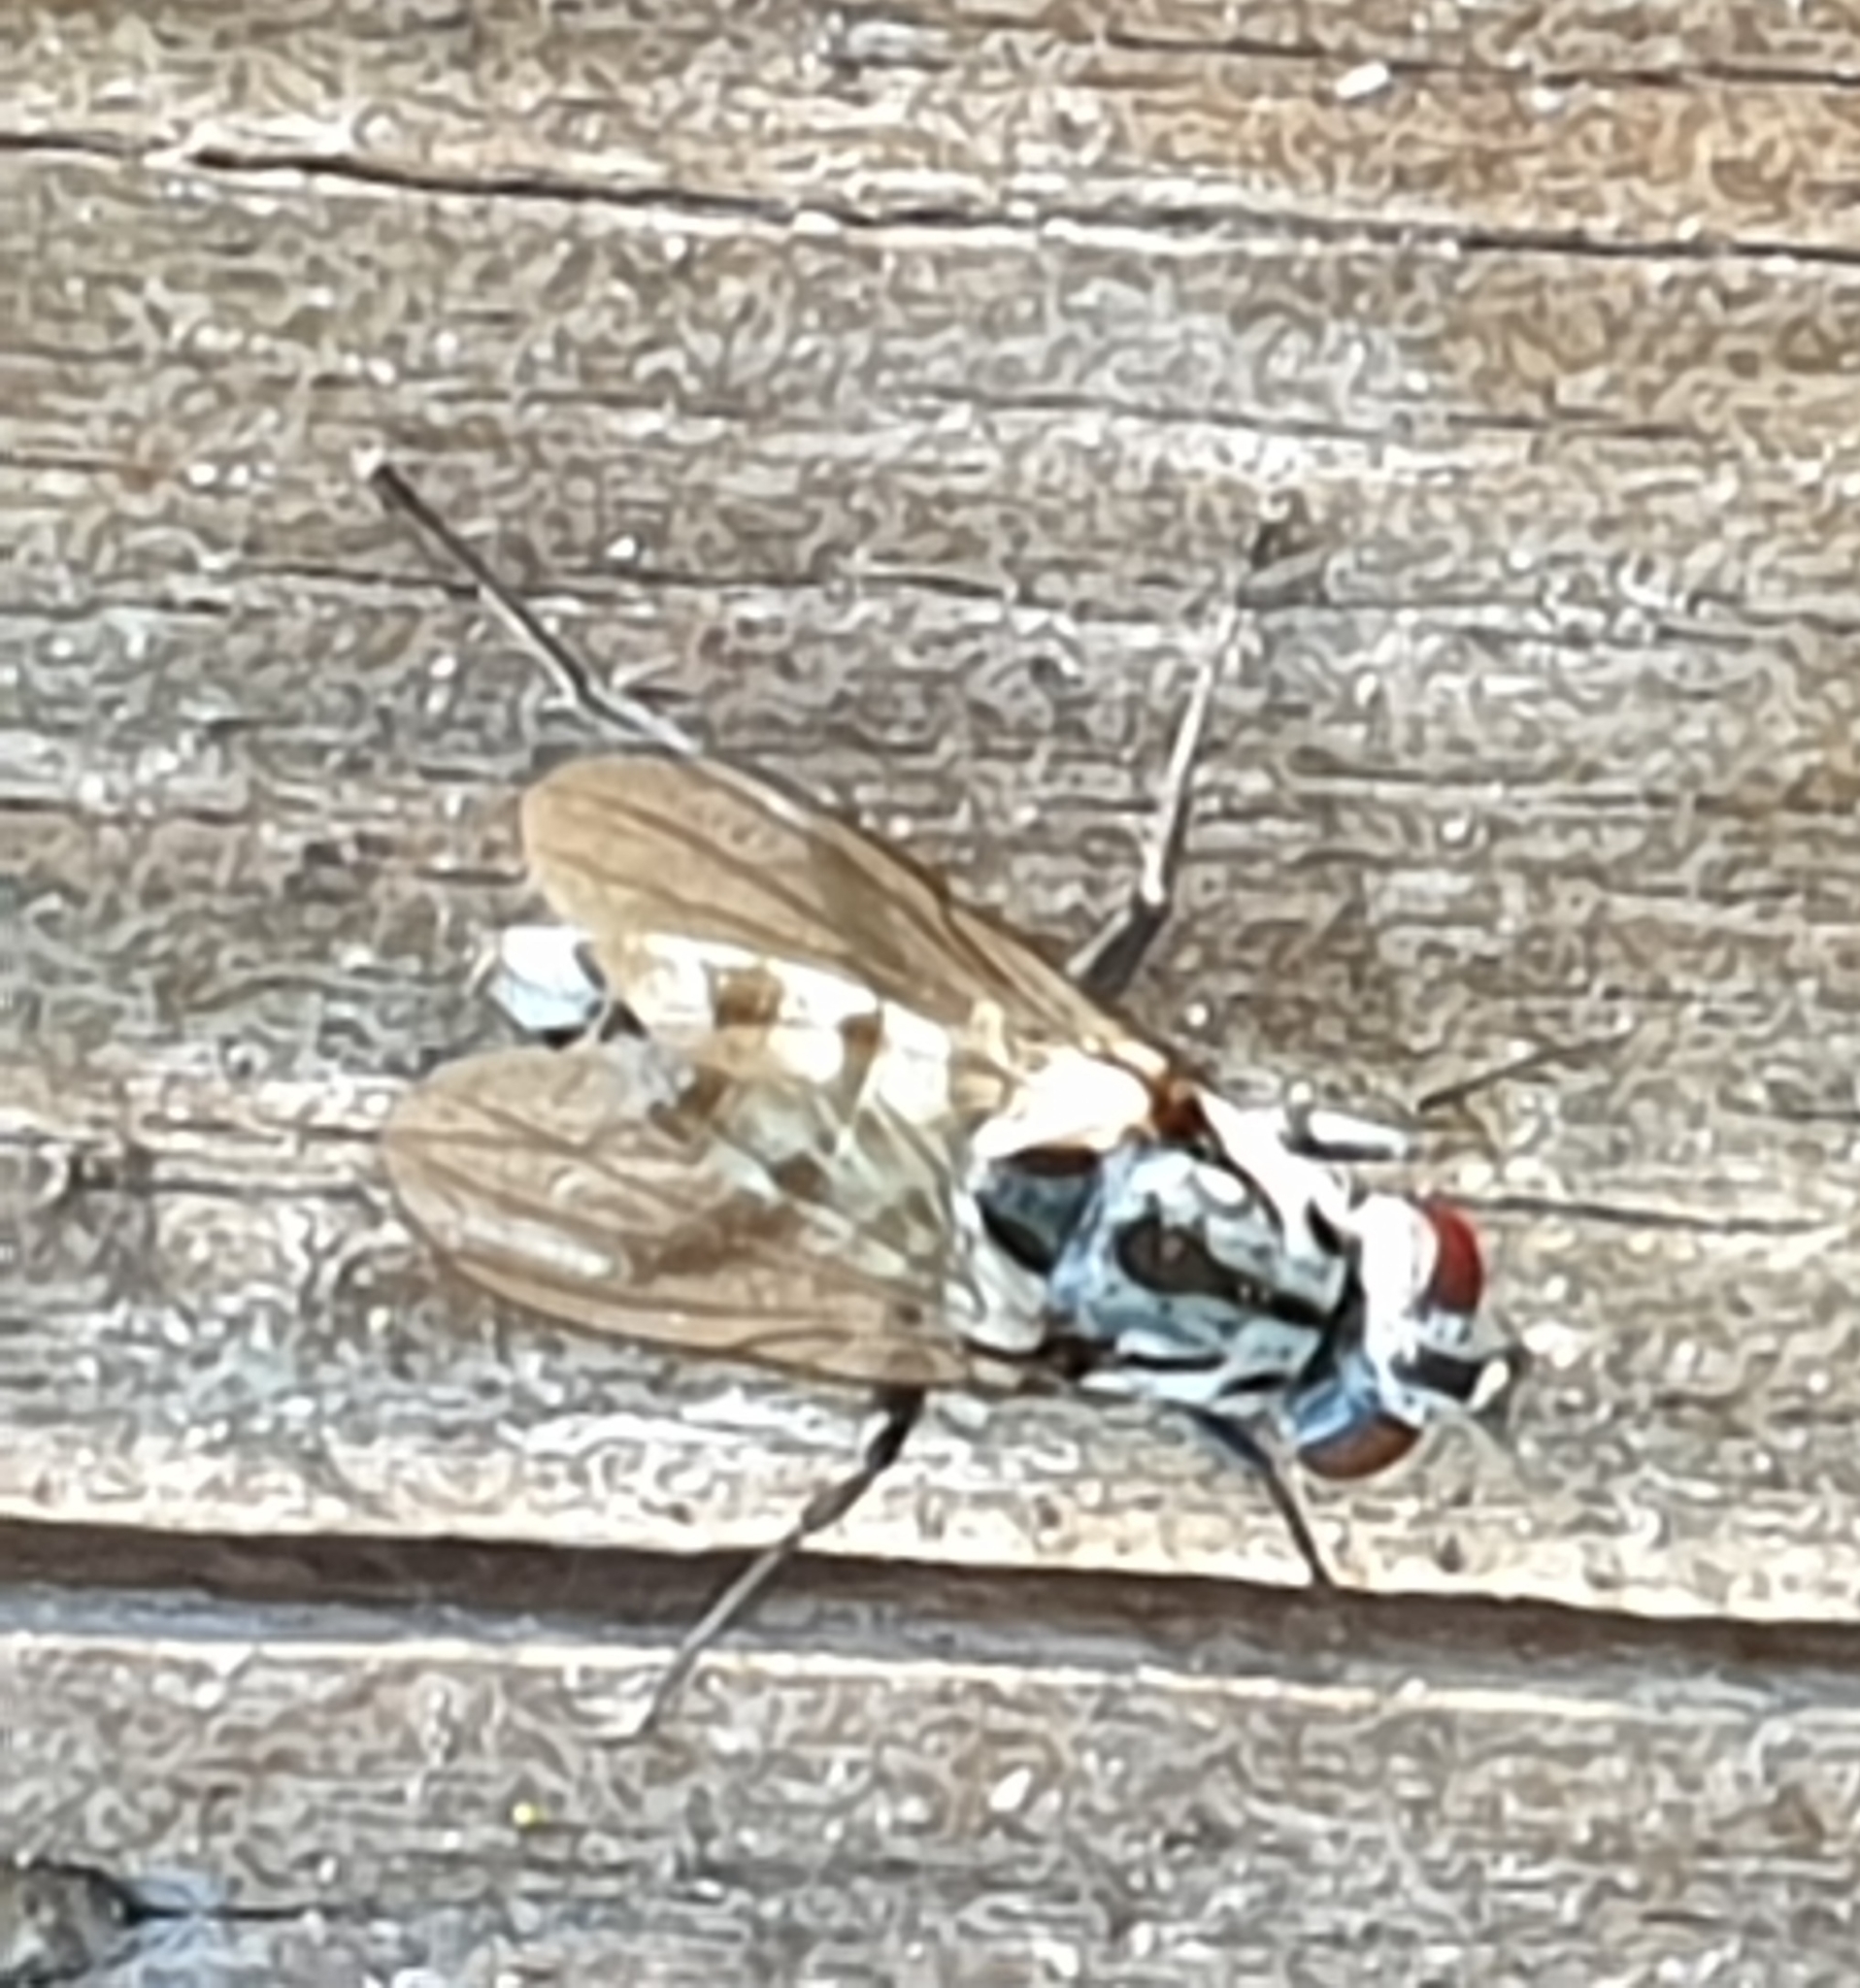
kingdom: Animalia
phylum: Arthropoda
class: Insecta
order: Diptera
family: Anthomyiidae
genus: Eustalomyia
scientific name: Eustalomyia hilaris
